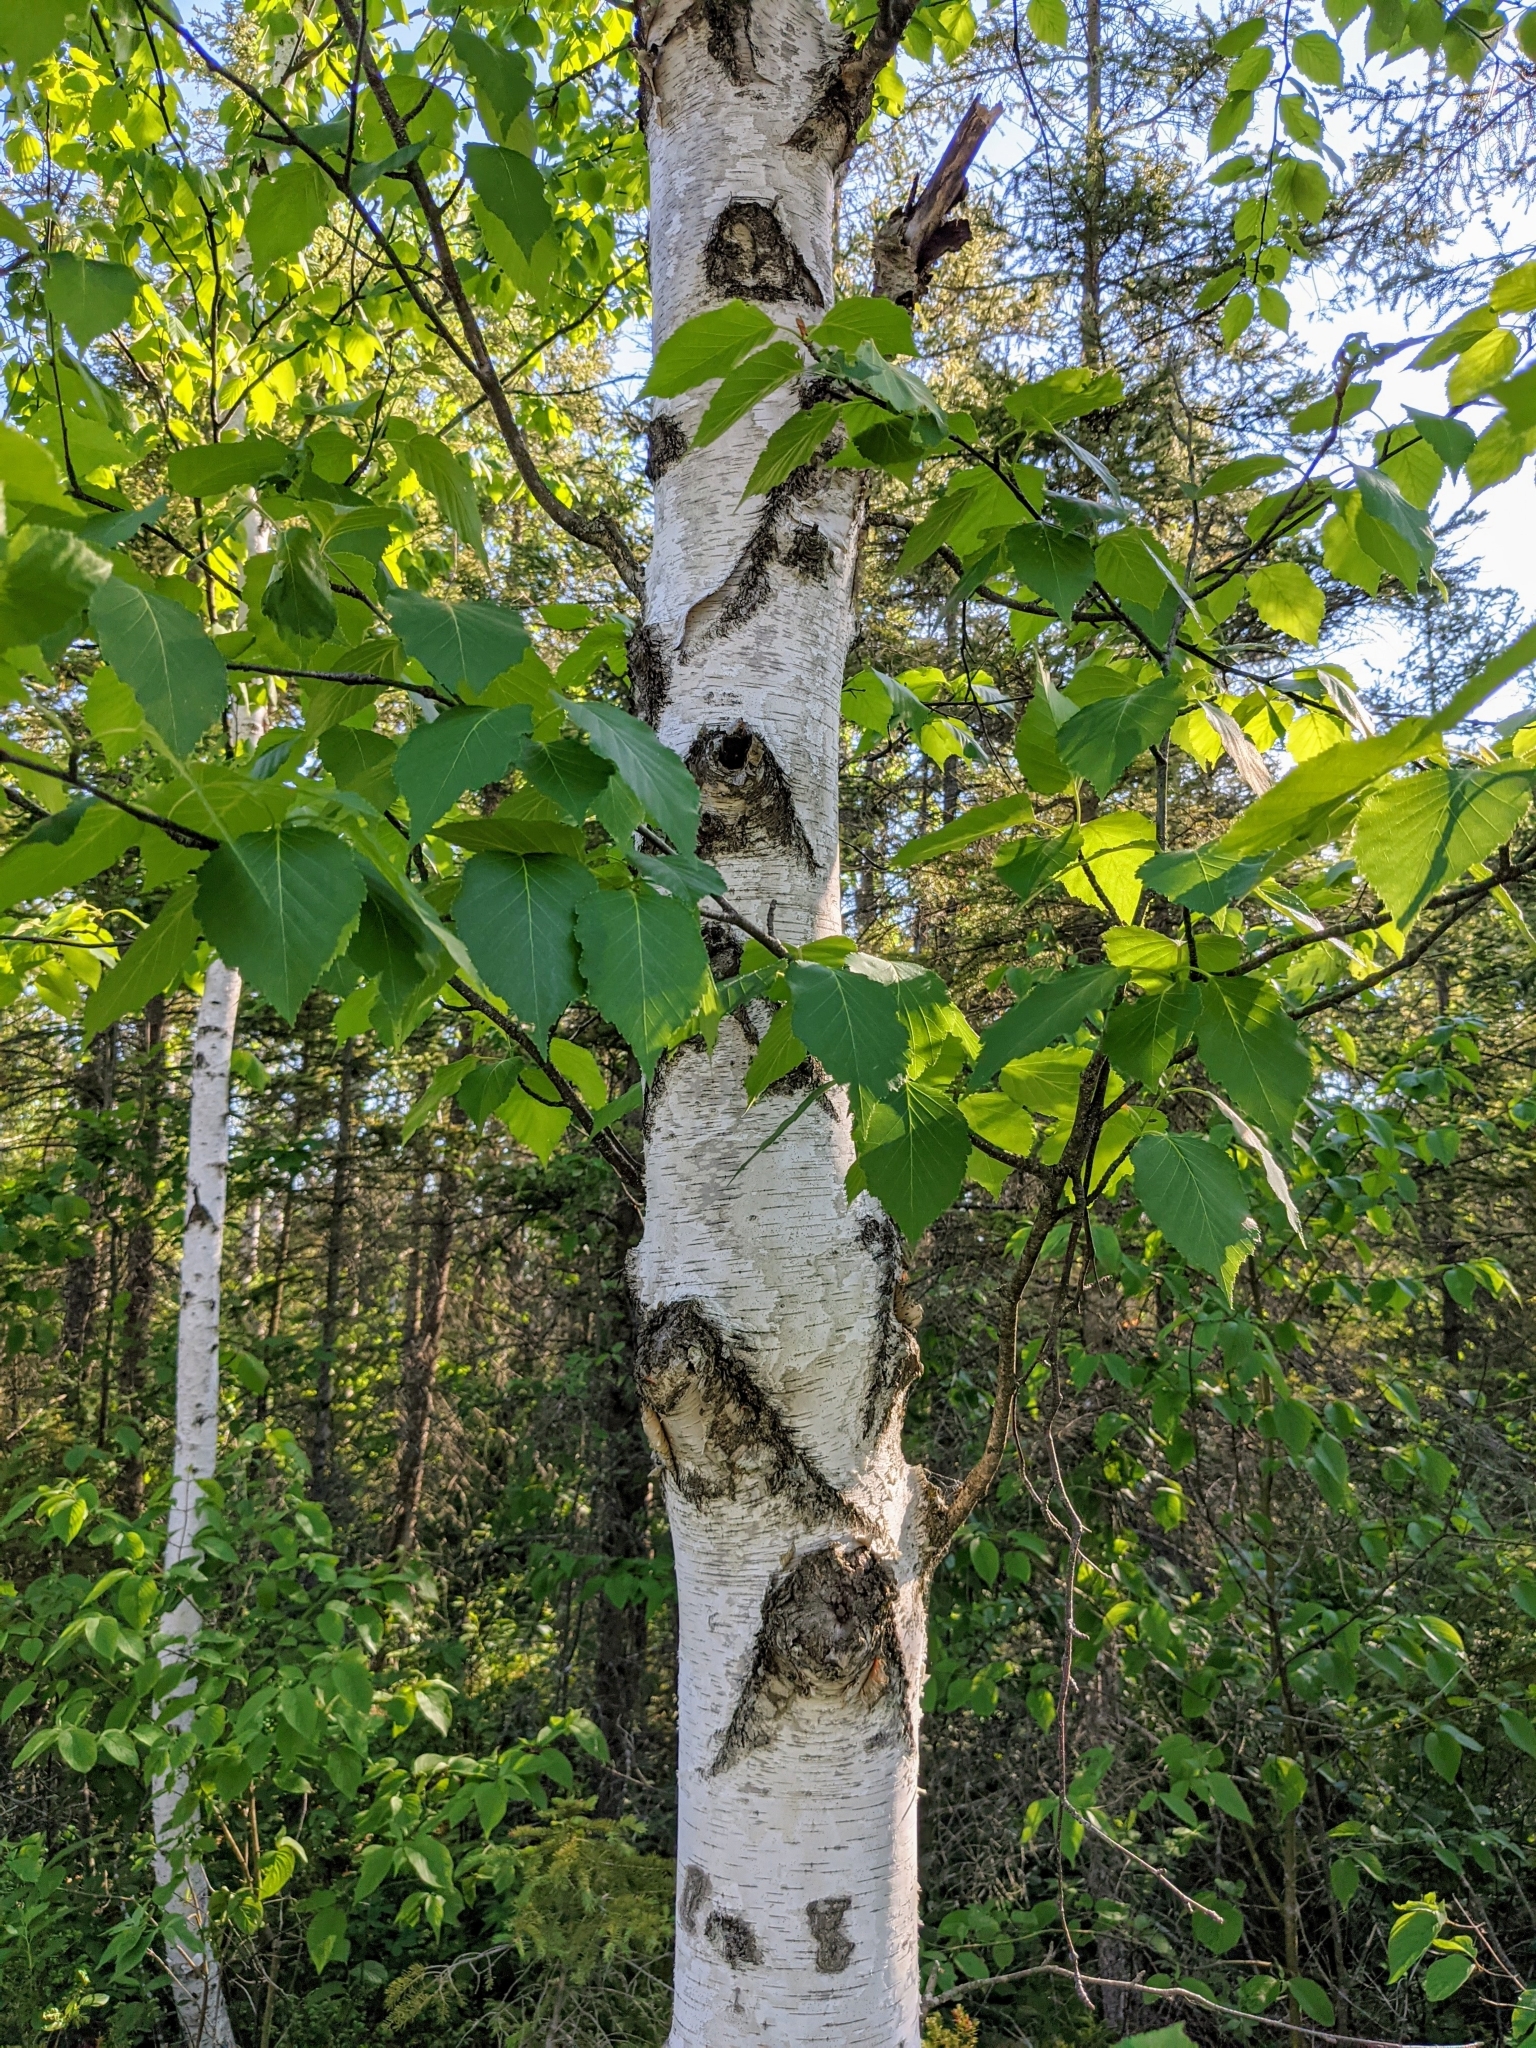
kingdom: Plantae
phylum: Tracheophyta
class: Magnoliopsida
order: Fagales
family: Betulaceae
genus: Betula
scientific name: Betula papyrifera
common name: Paper birch
